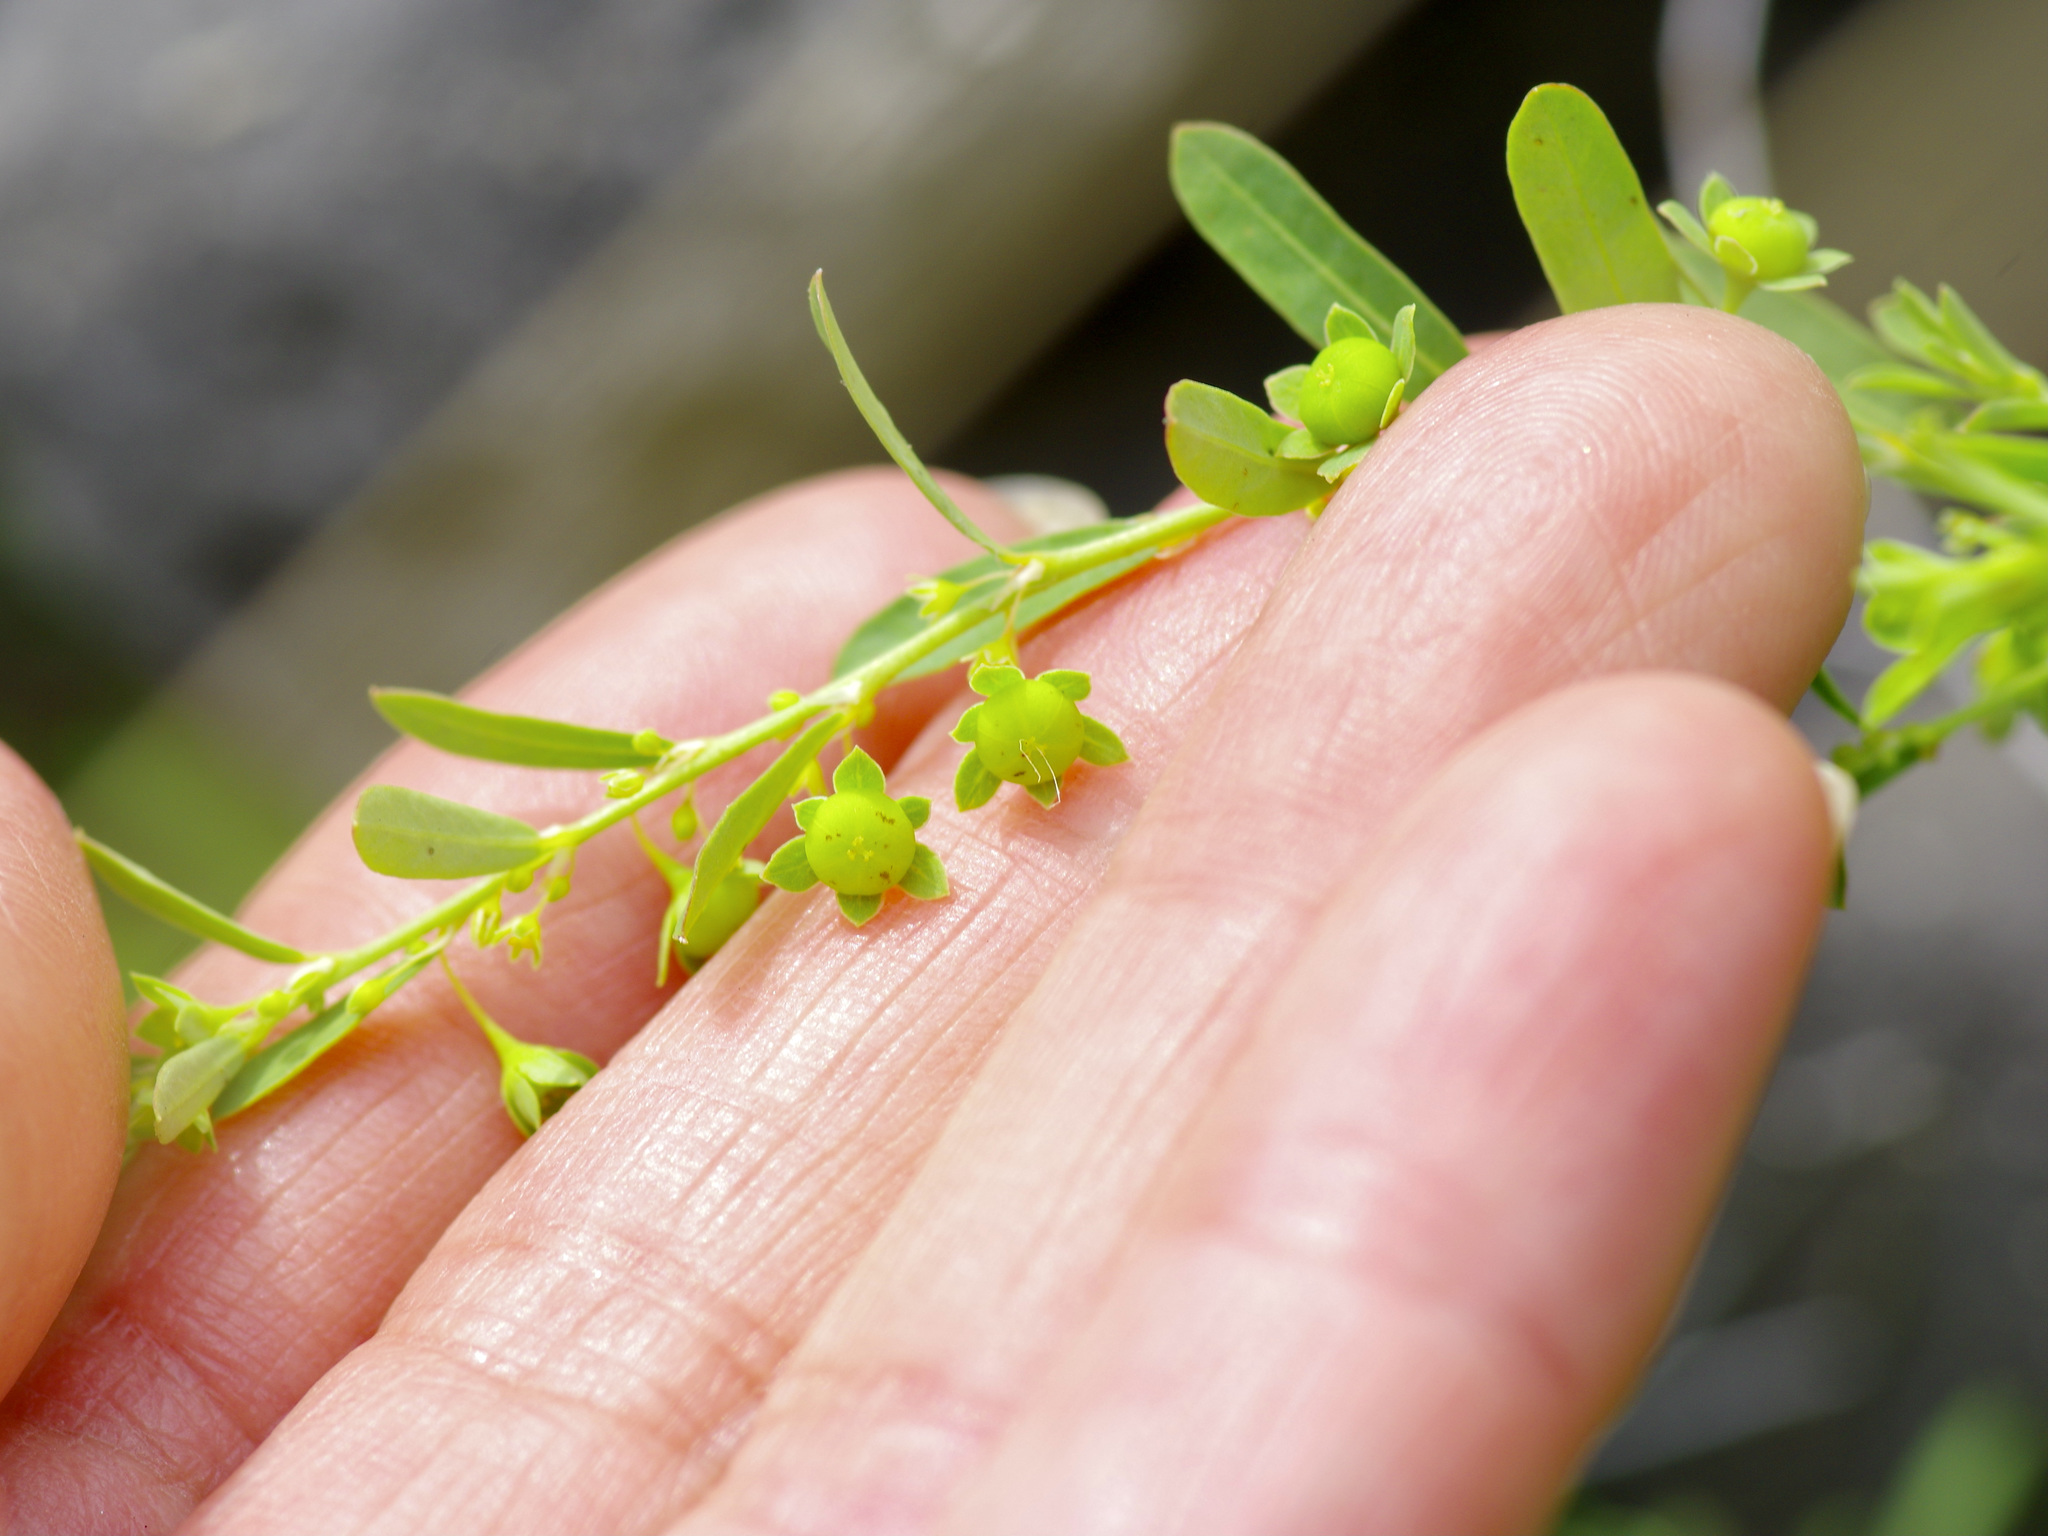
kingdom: Plantae
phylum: Tracheophyta
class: Magnoliopsida
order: Malpighiales
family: Phyllanthaceae
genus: Phyllanthus
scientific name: Phyllanthus polygonoides
